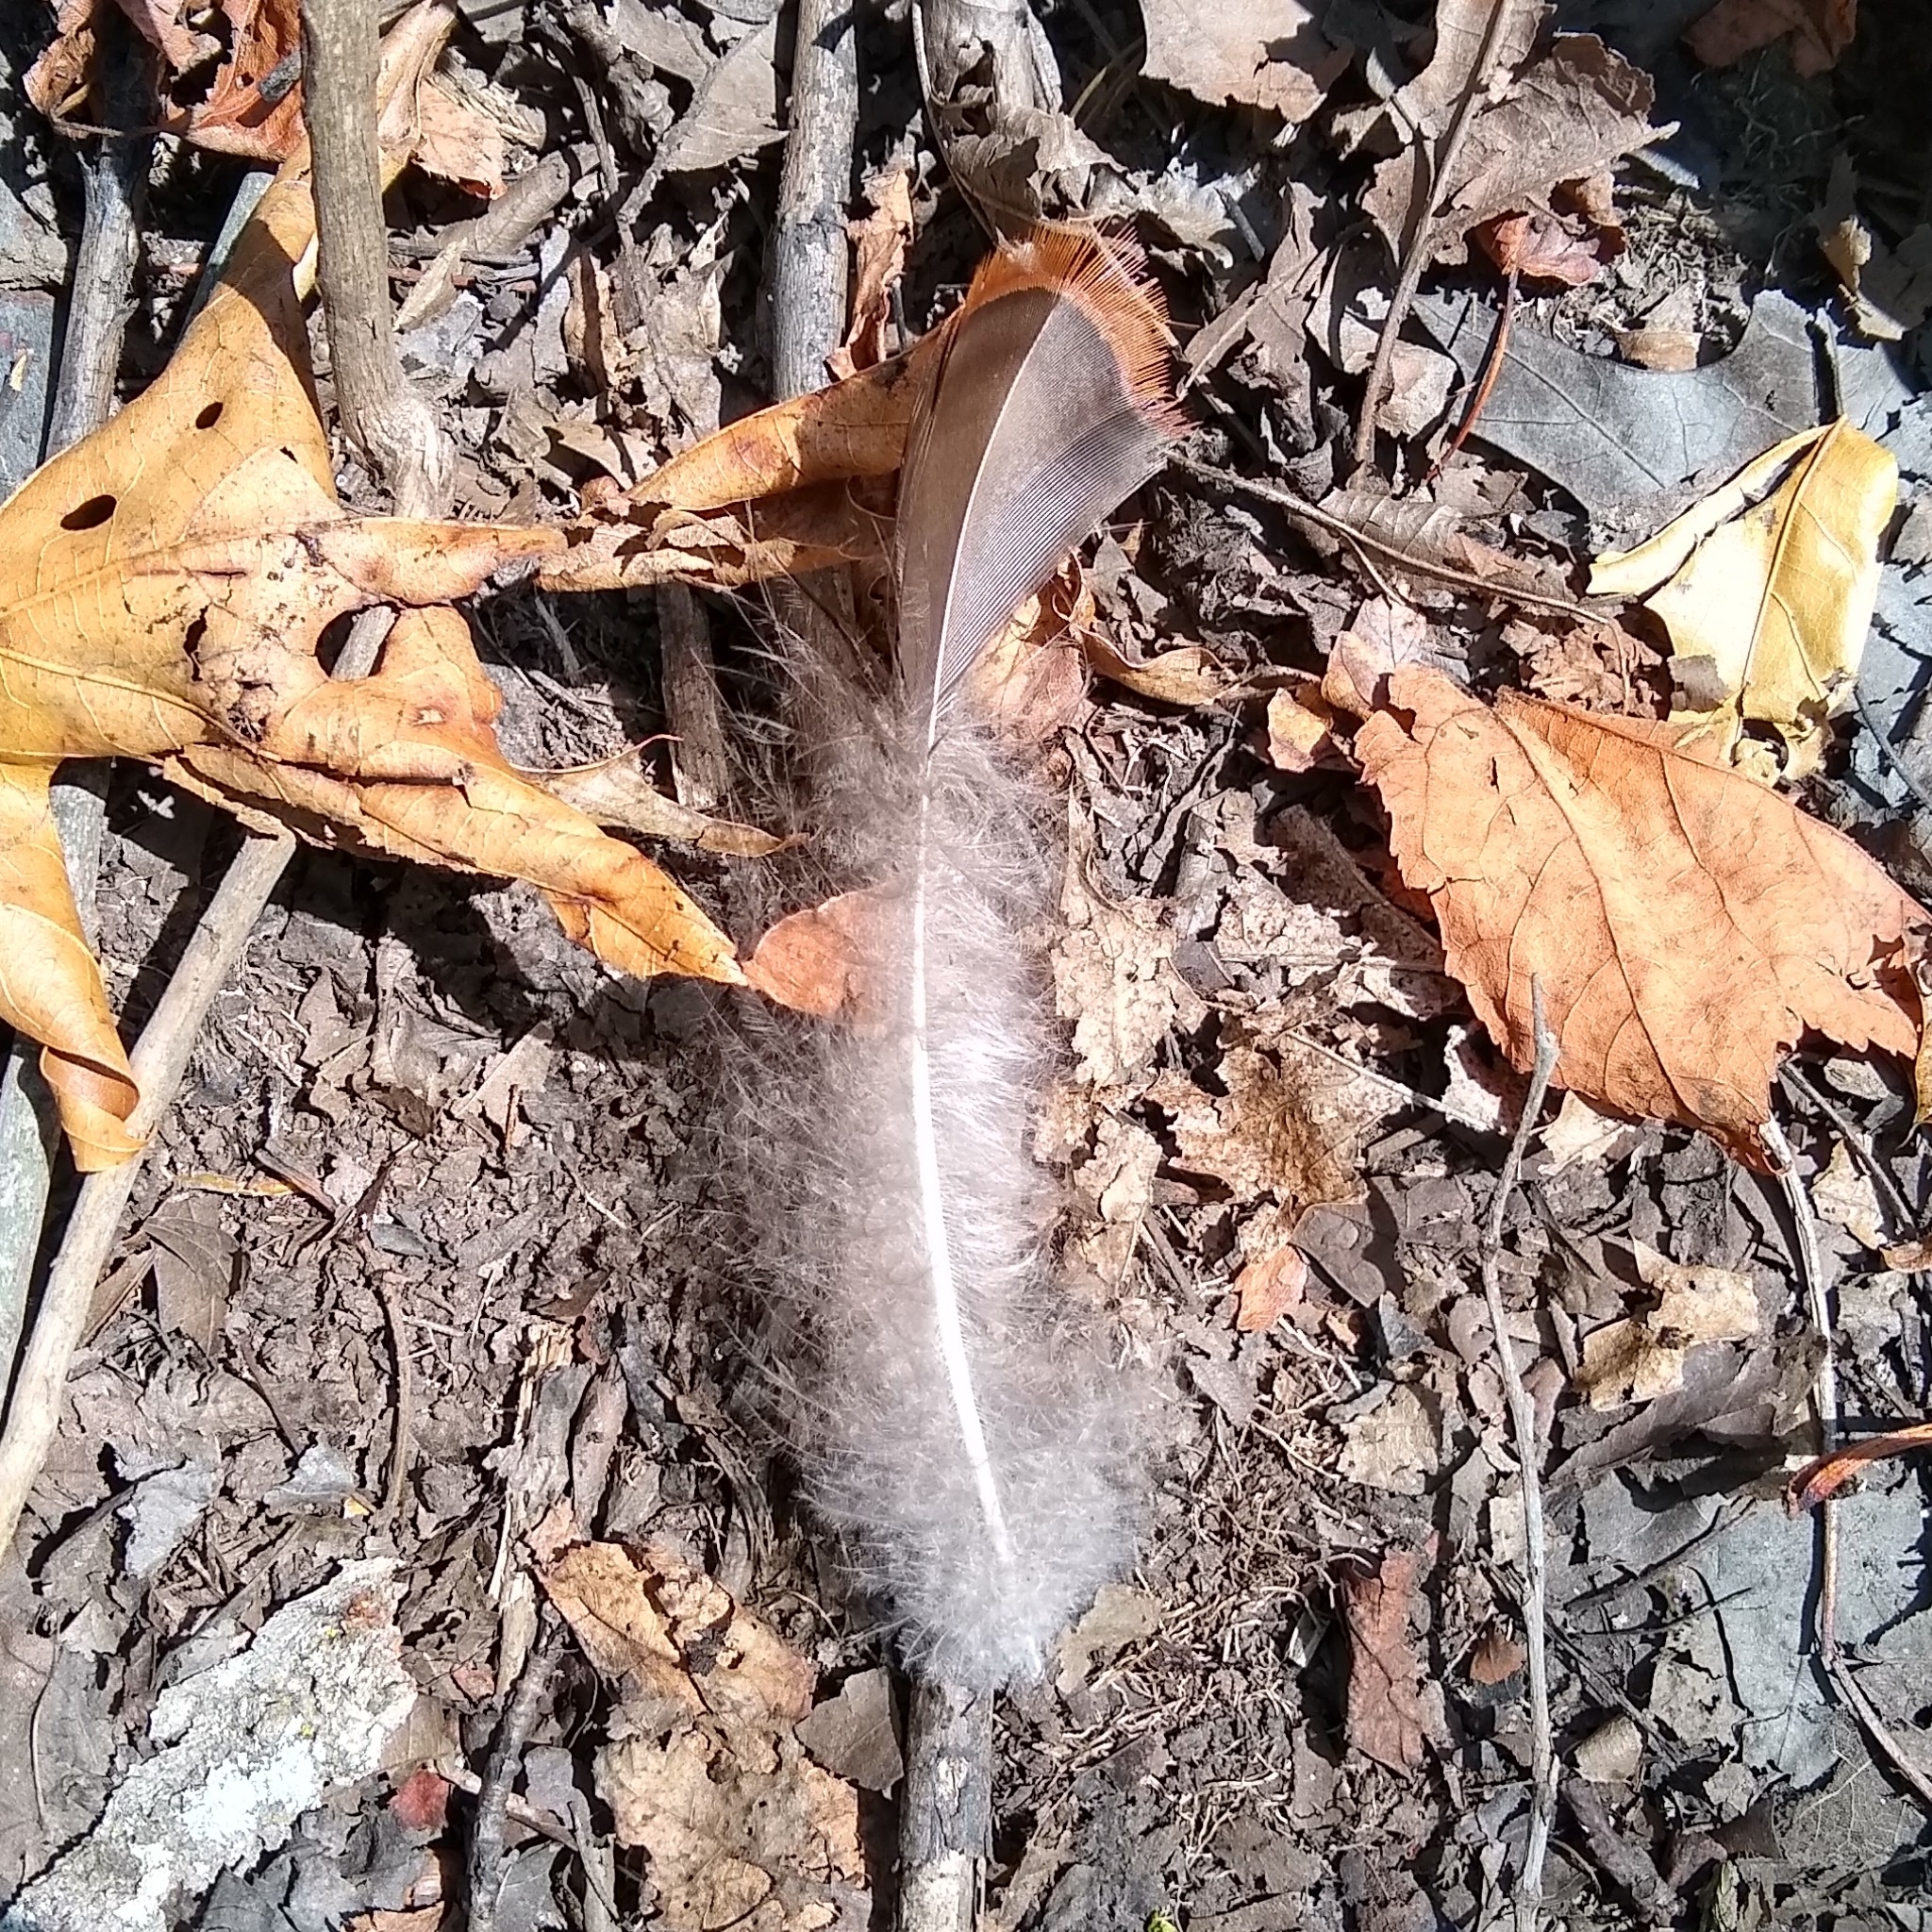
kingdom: Animalia
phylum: Chordata
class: Aves
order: Galliformes
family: Phasianidae
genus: Meleagris
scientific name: Meleagris gallopavo
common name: Wild turkey
